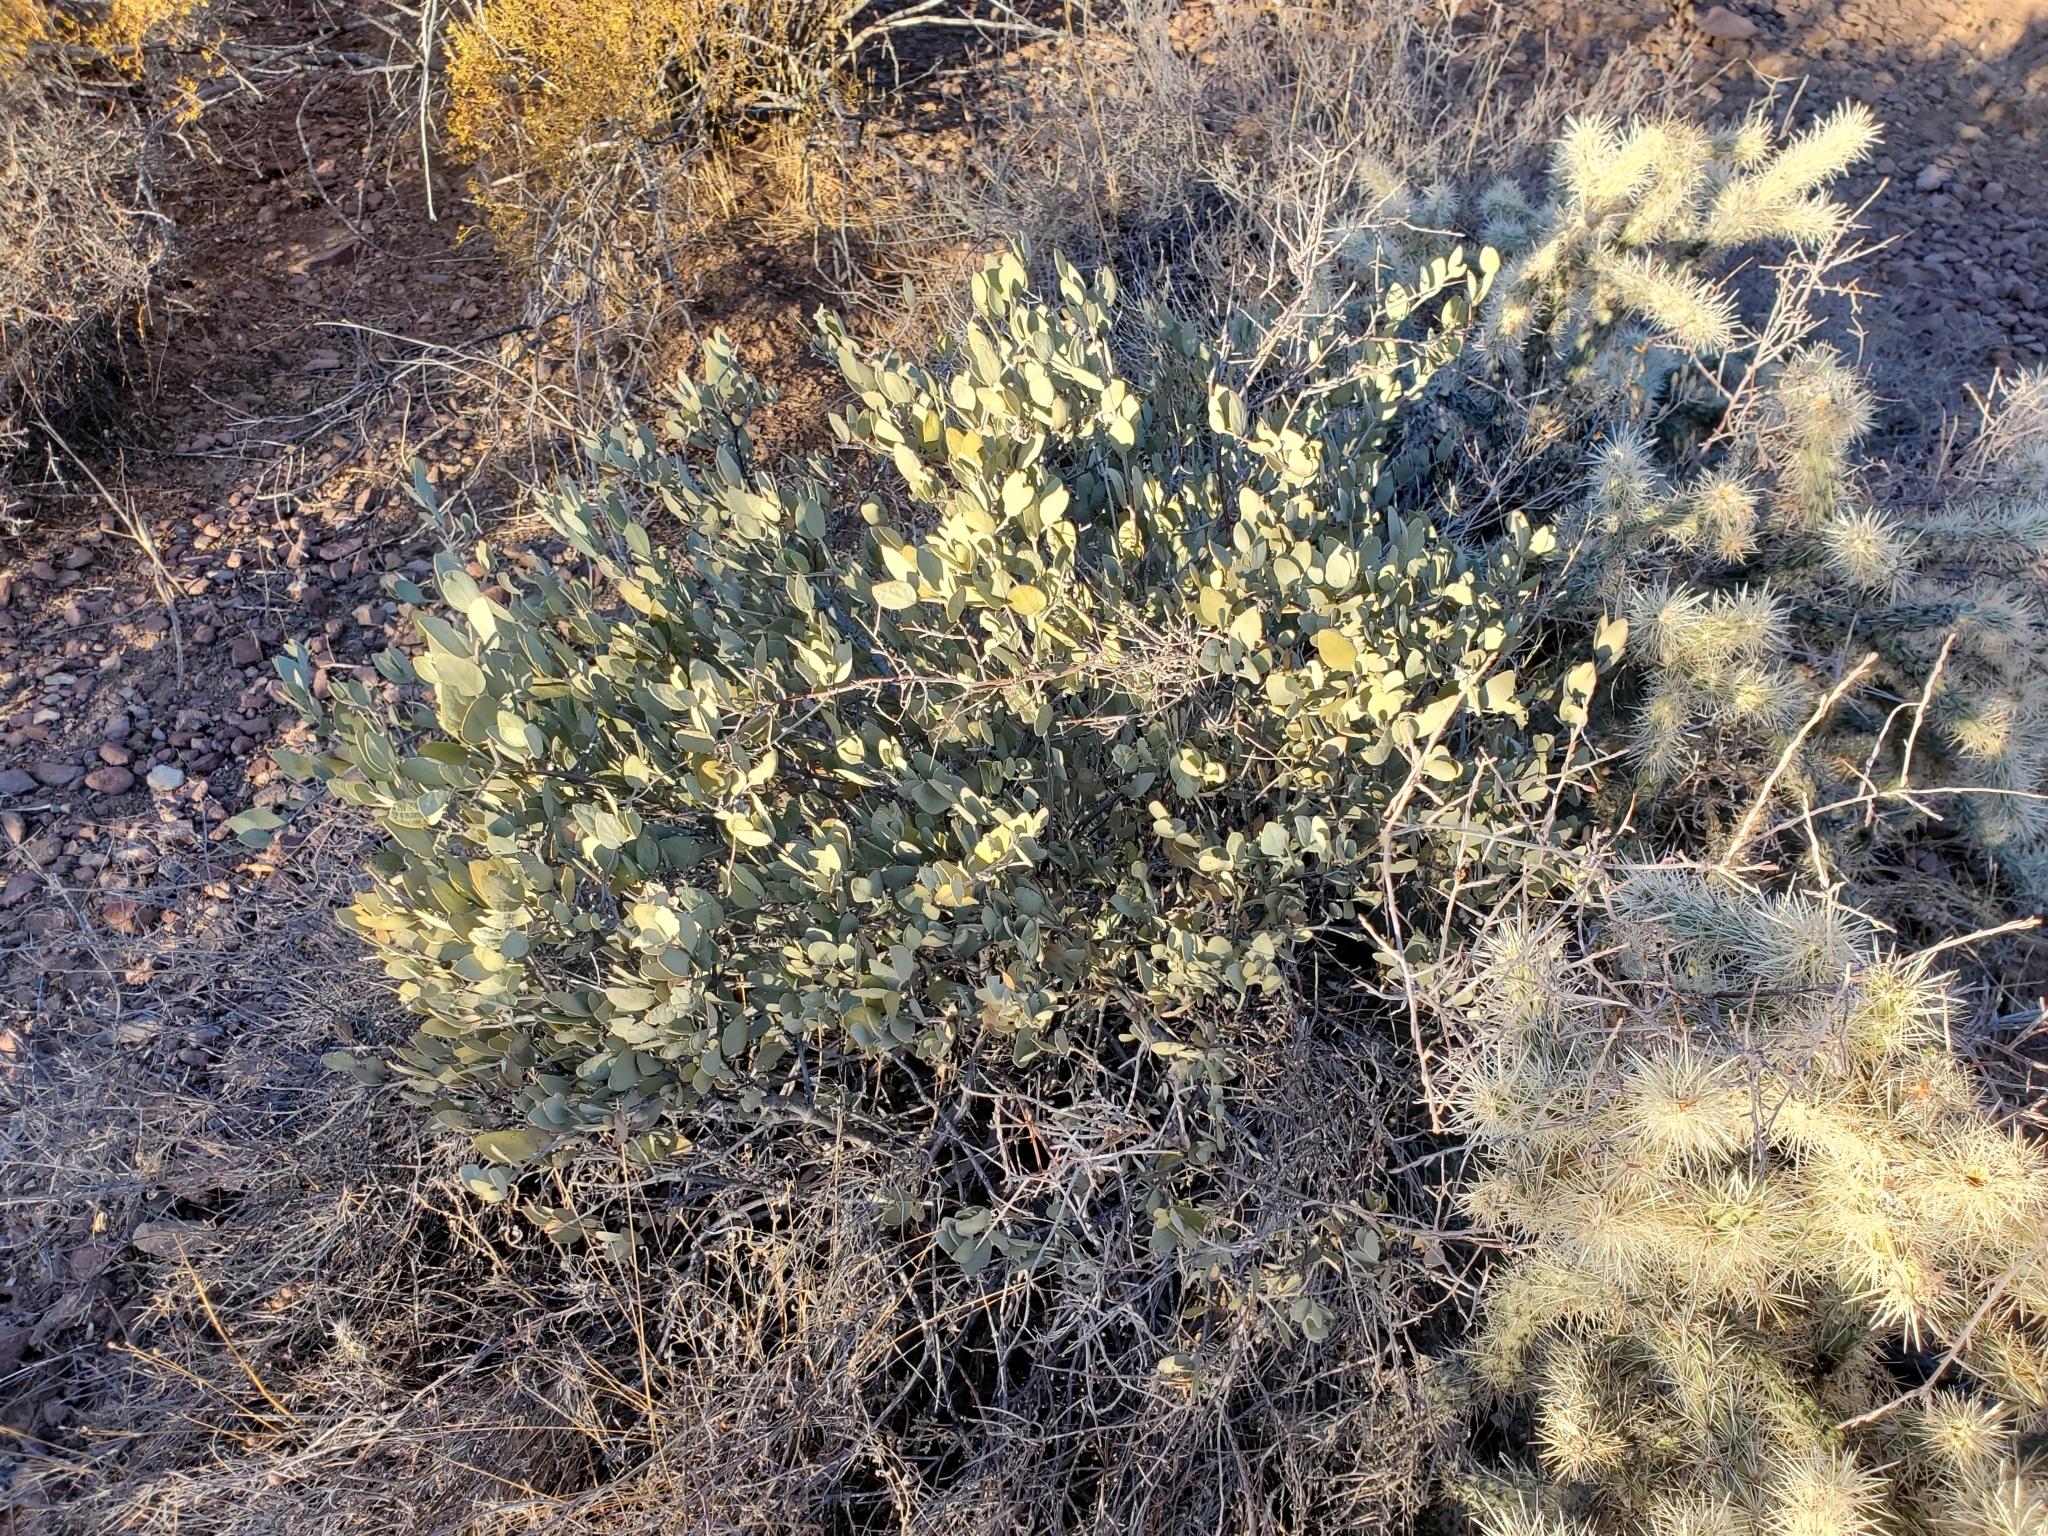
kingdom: Plantae
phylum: Tracheophyta
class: Magnoliopsida
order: Caryophyllales
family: Simmondsiaceae
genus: Simmondsia
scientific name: Simmondsia chinensis
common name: Jojoba
